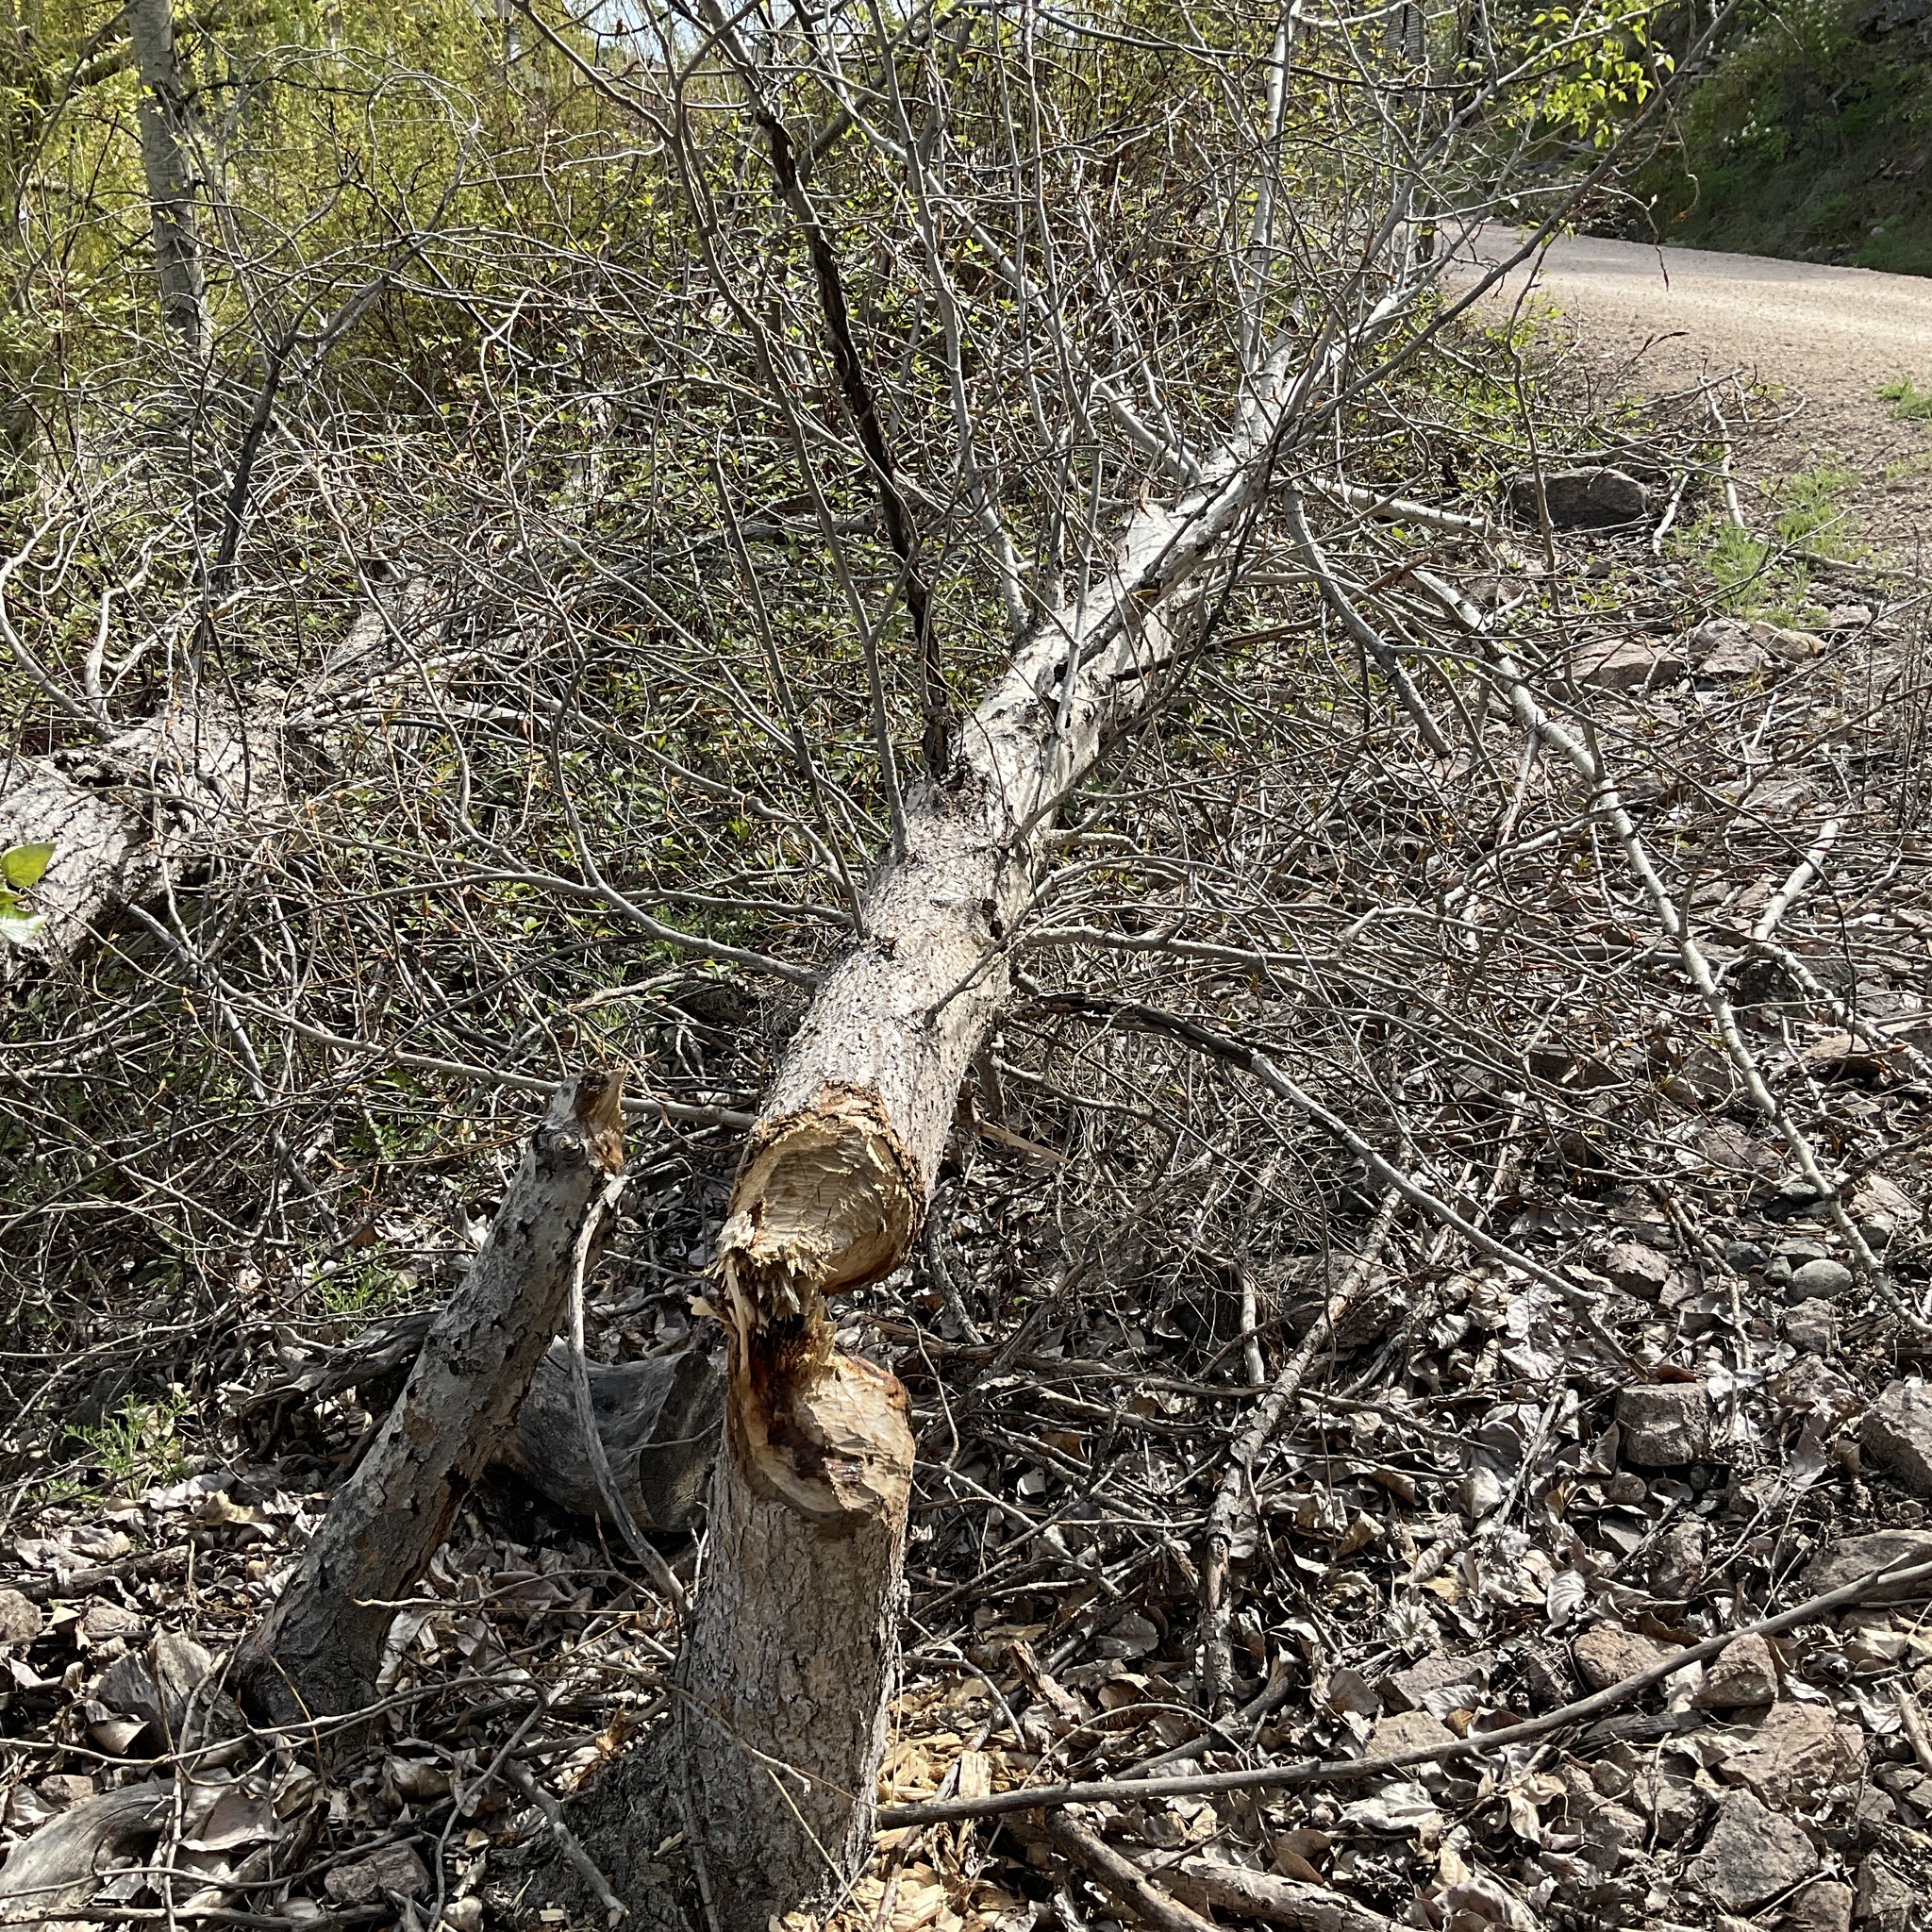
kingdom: Animalia
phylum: Chordata
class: Mammalia
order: Rodentia
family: Castoridae
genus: Castor
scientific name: Castor canadensis
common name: American beaver
